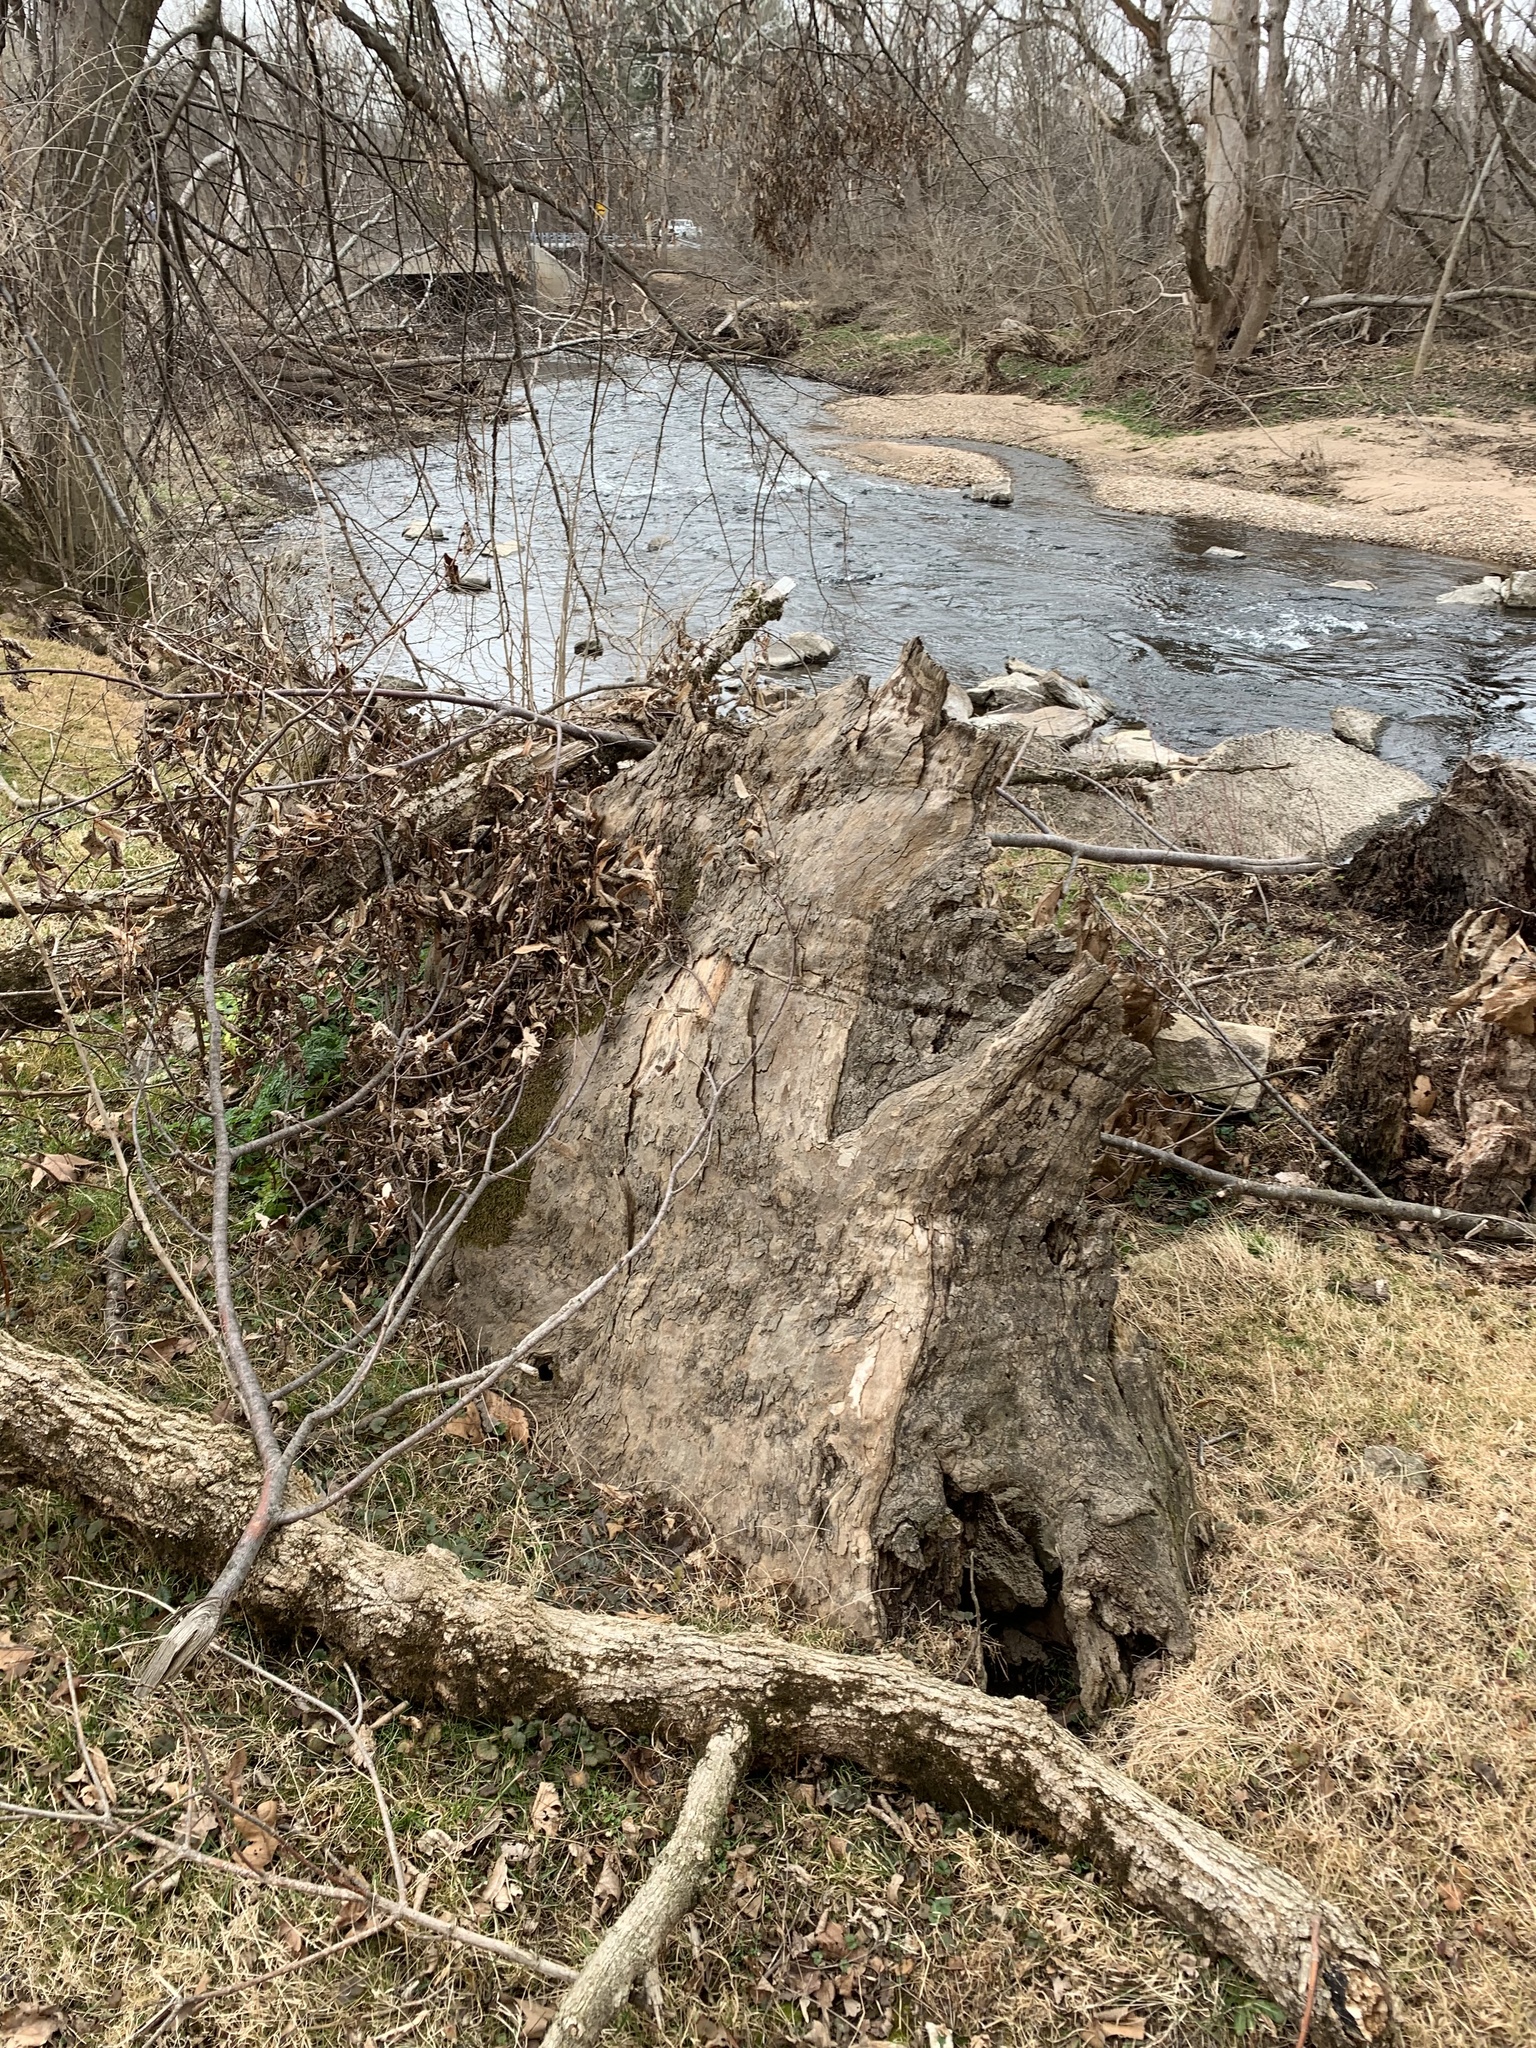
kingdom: Plantae
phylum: Tracheophyta
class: Magnoliopsida
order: Proteales
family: Platanaceae
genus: Platanus
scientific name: Platanus occidentalis
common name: American sycamore
